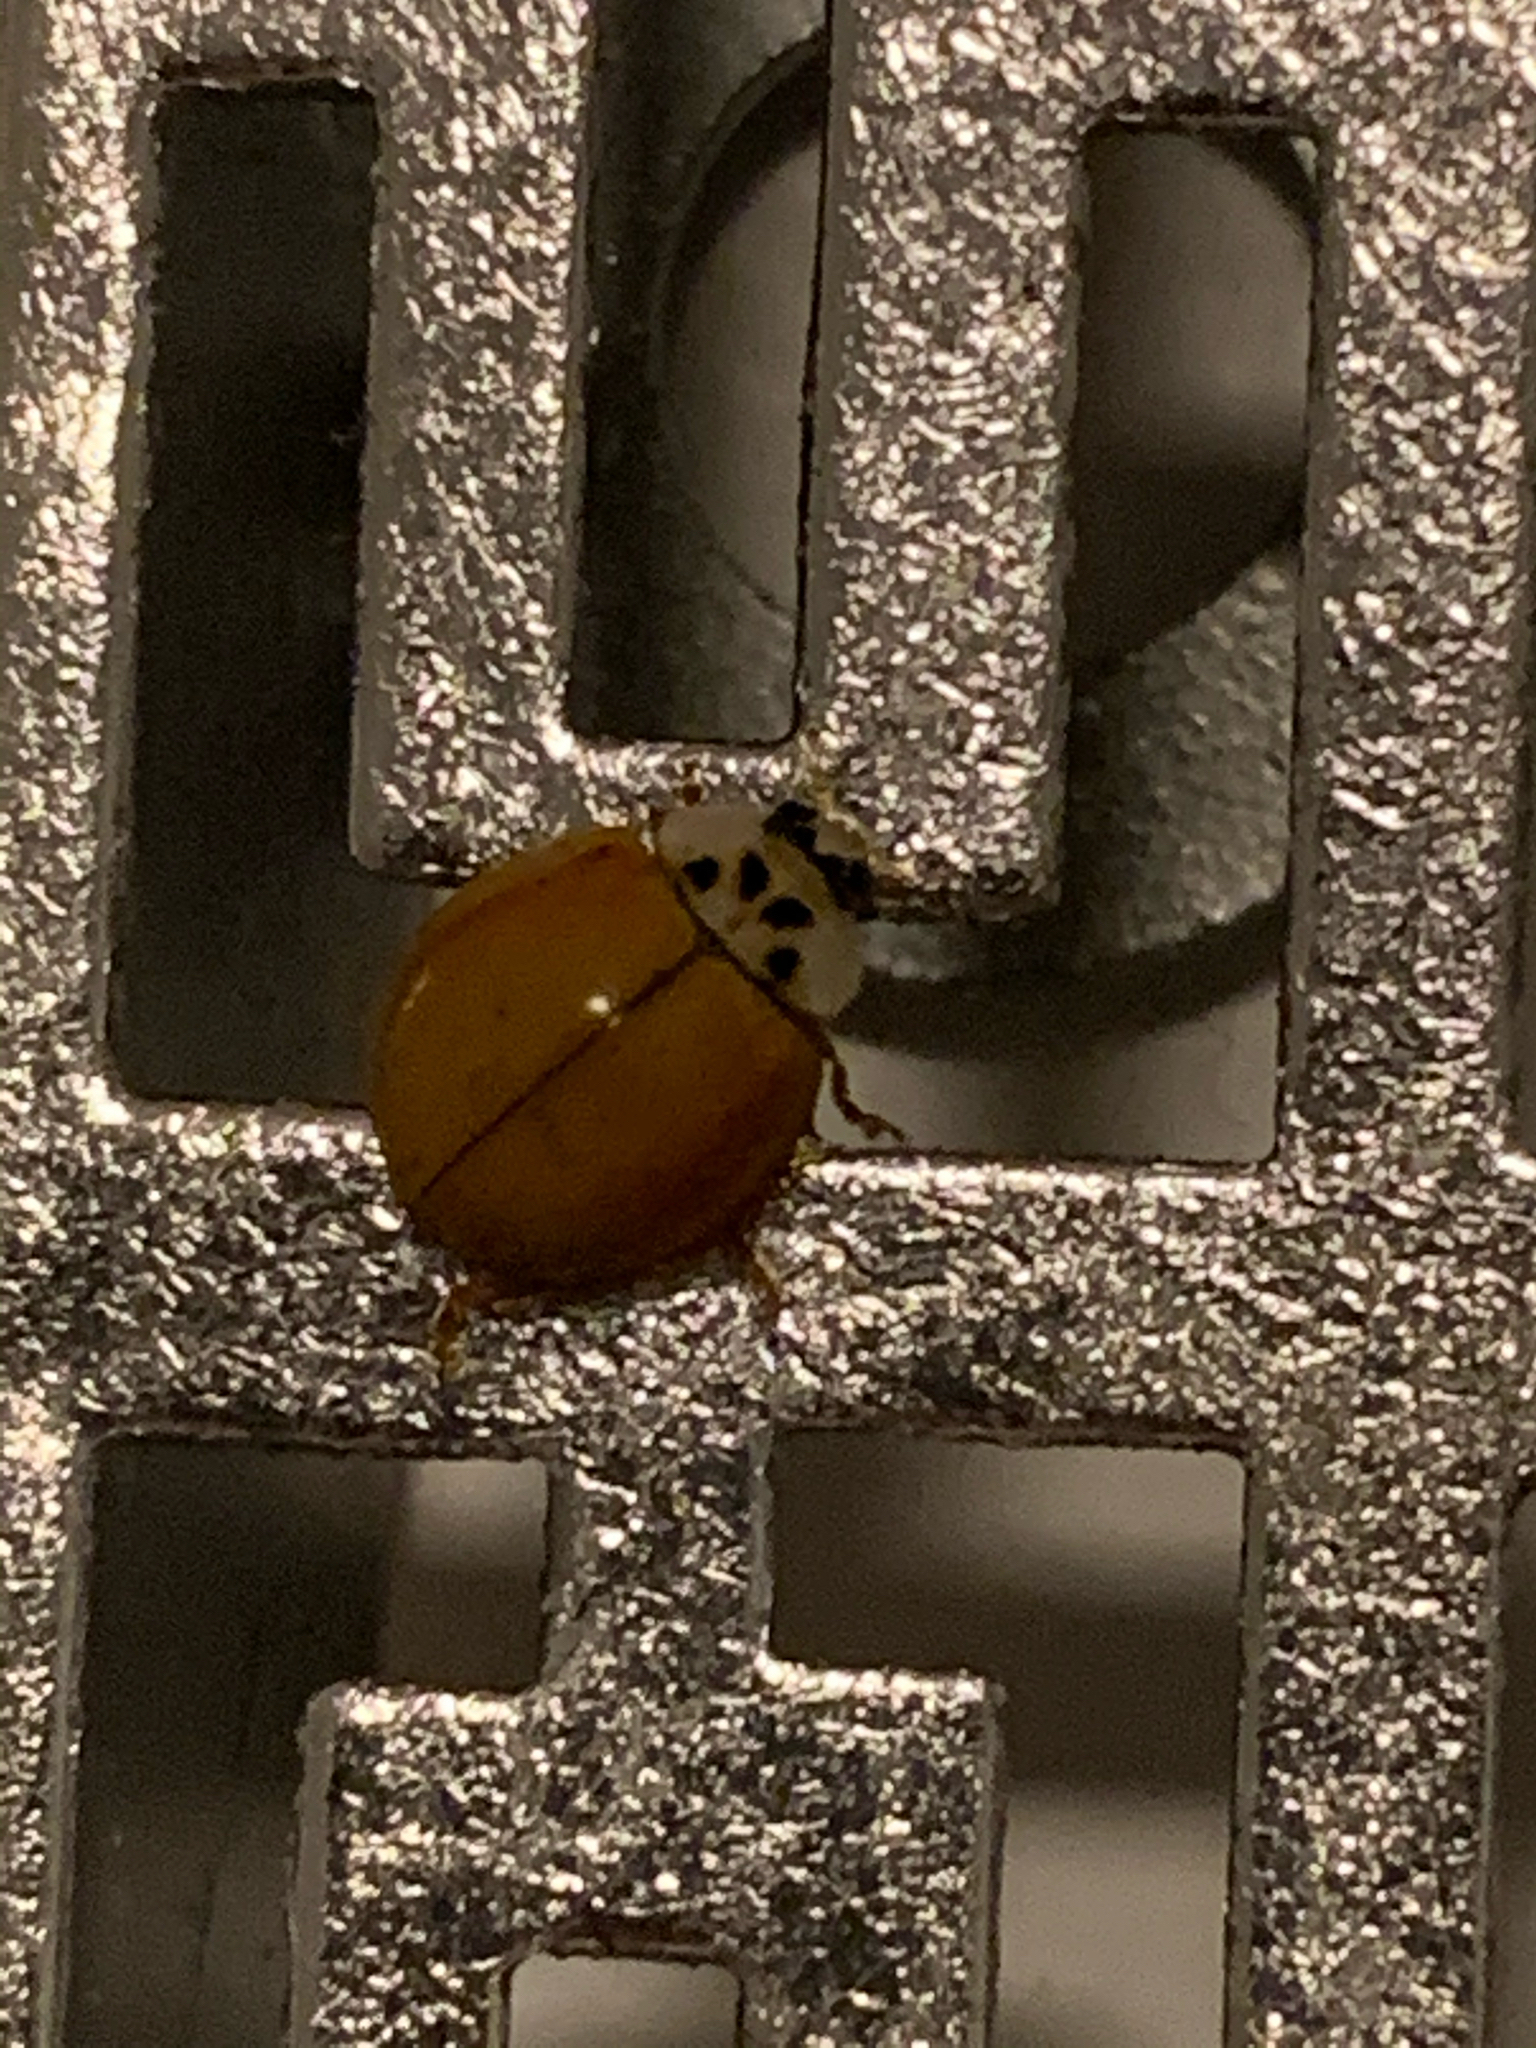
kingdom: Animalia
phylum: Arthropoda
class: Insecta
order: Coleoptera
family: Coccinellidae
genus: Harmonia
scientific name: Harmonia axyridis
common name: Harlequin ladybird
